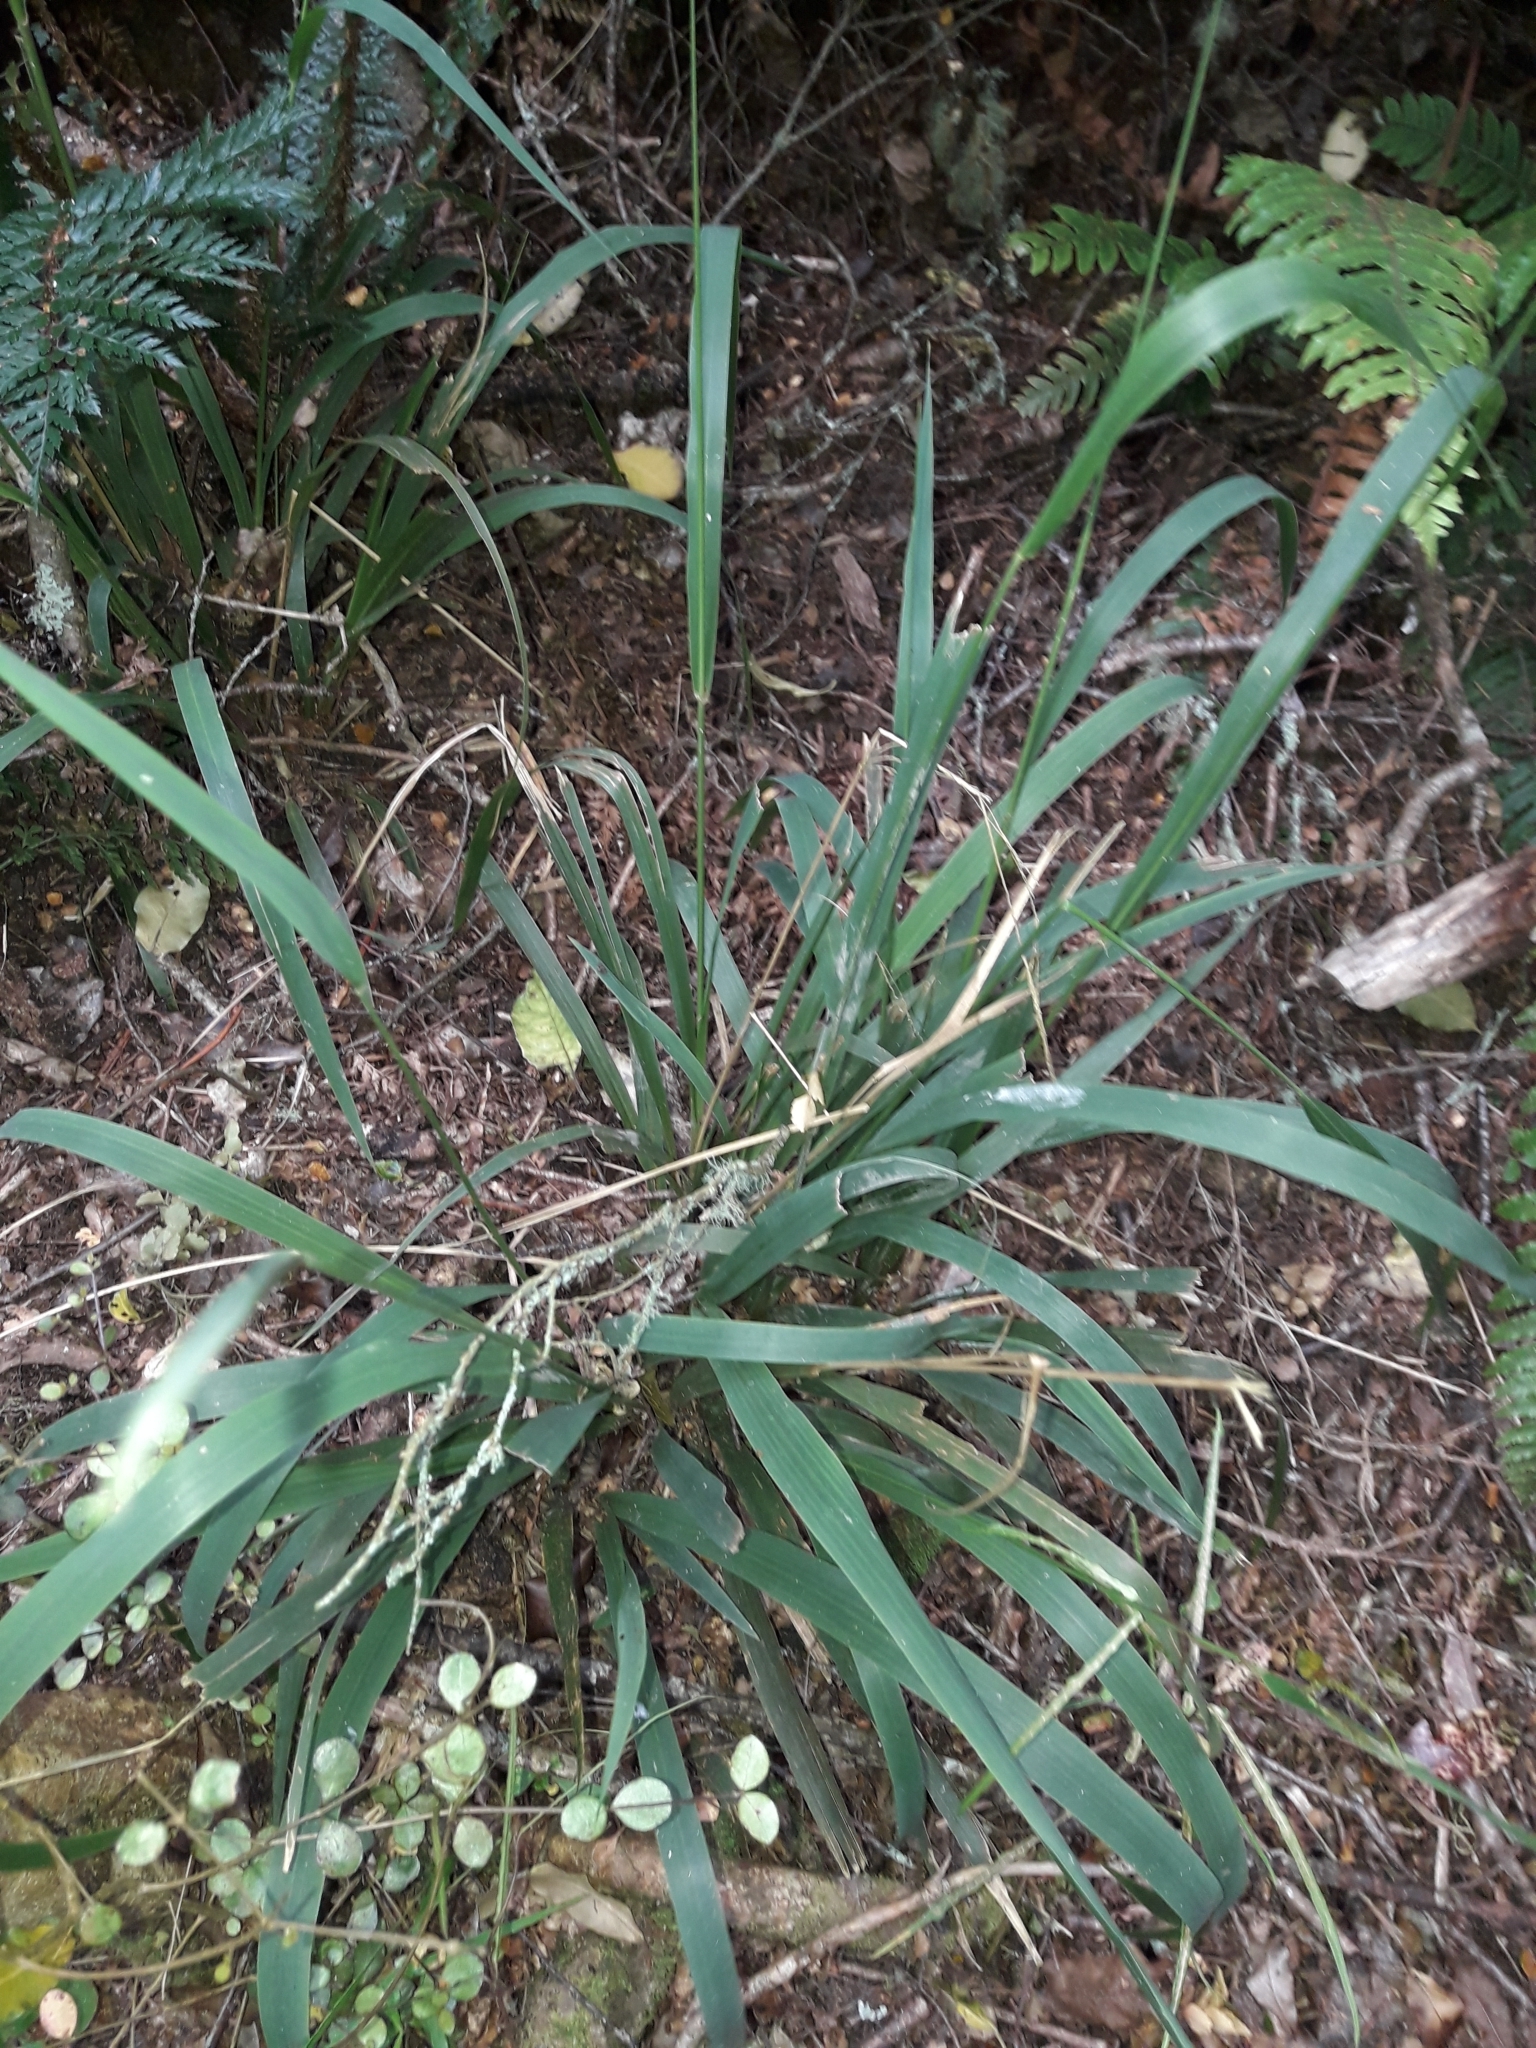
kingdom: Plantae
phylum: Tracheophyta
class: Liliopsida
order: Poales
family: Poaceae
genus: Ehrharta
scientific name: Ehrharta diplax
